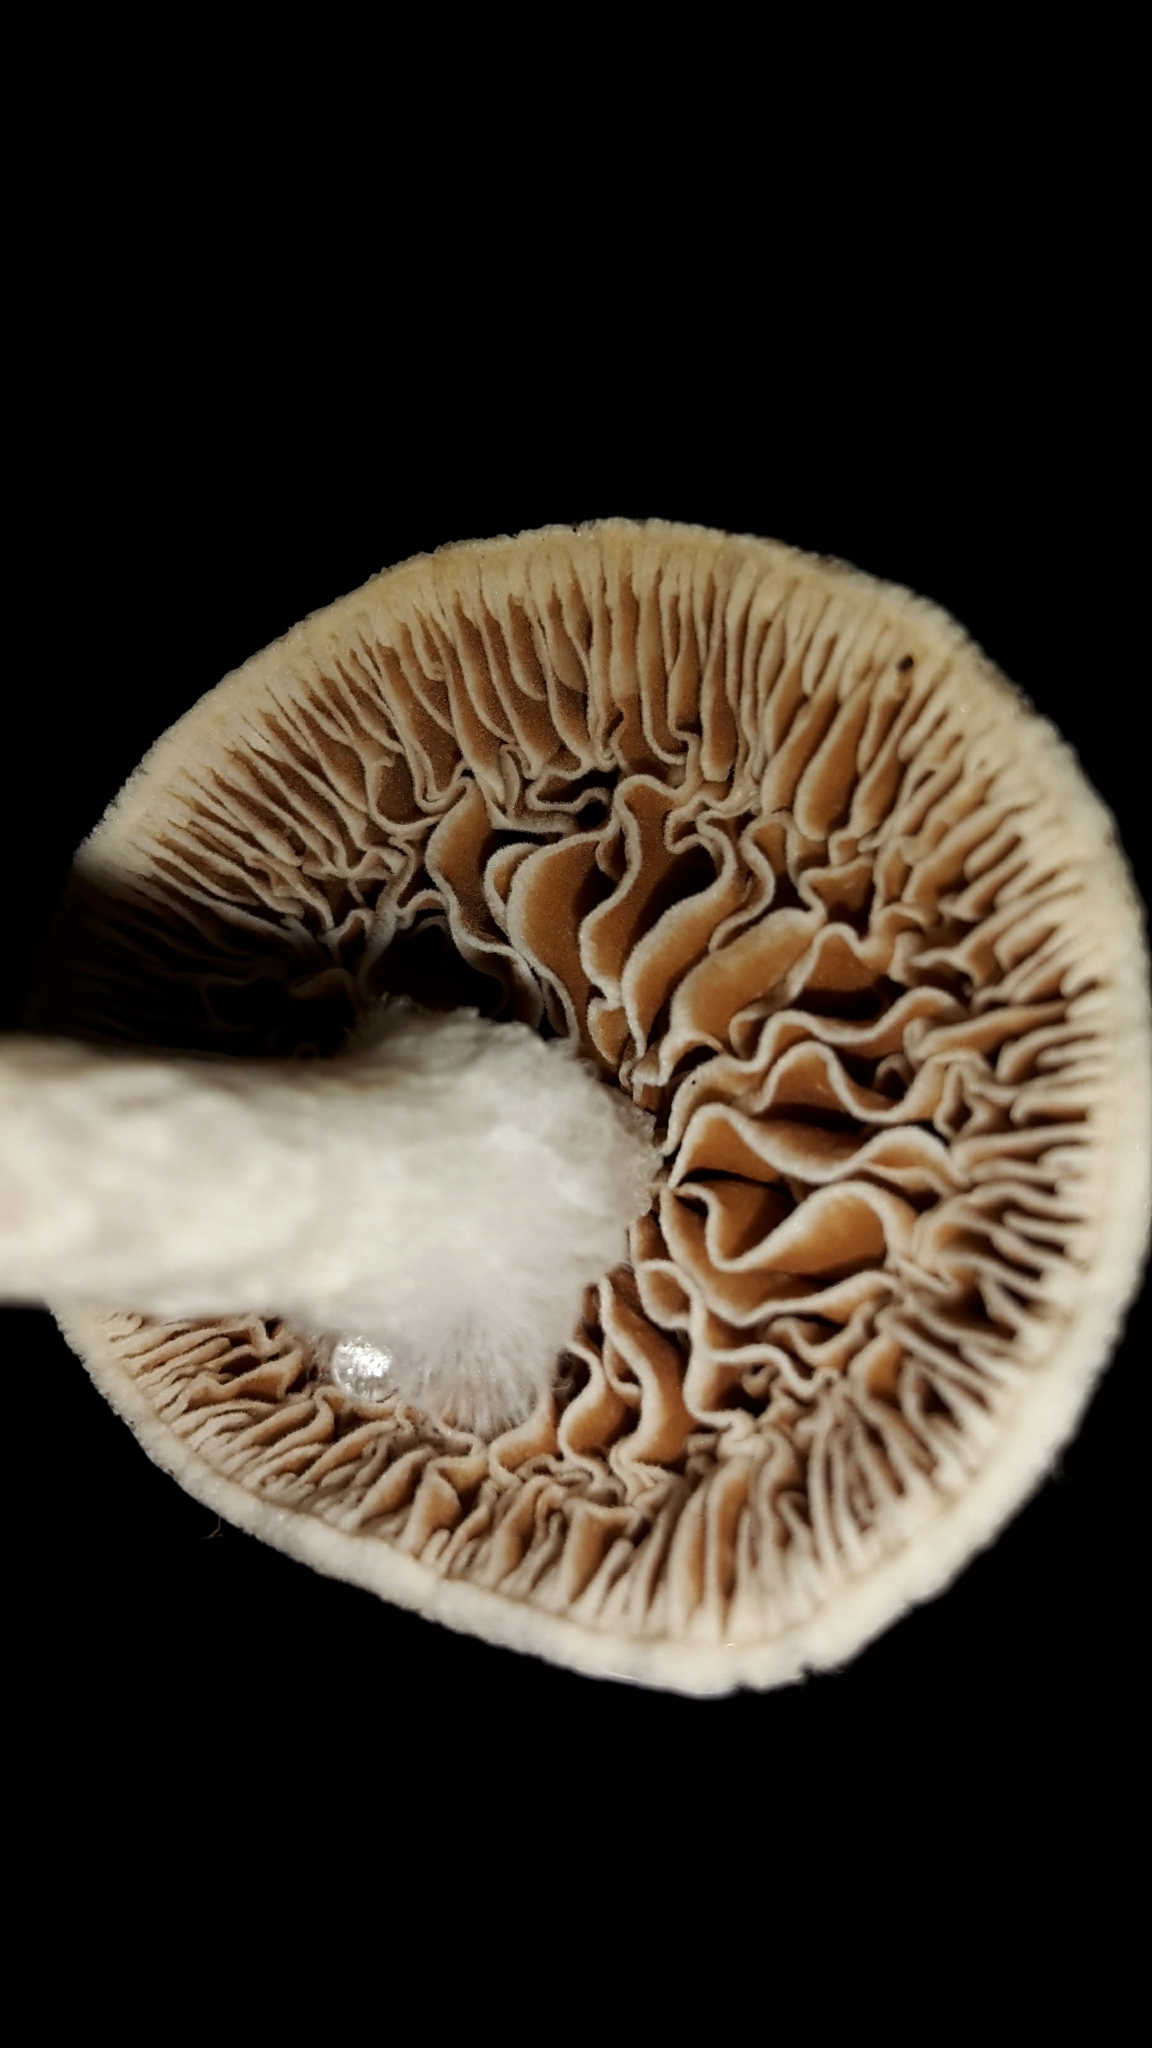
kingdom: Fungi
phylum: Basidiomycota
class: Agaricomycetes
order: Agaricales
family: Bolbitiaceae
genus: Tympanella
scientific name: Tympanella galanthina
